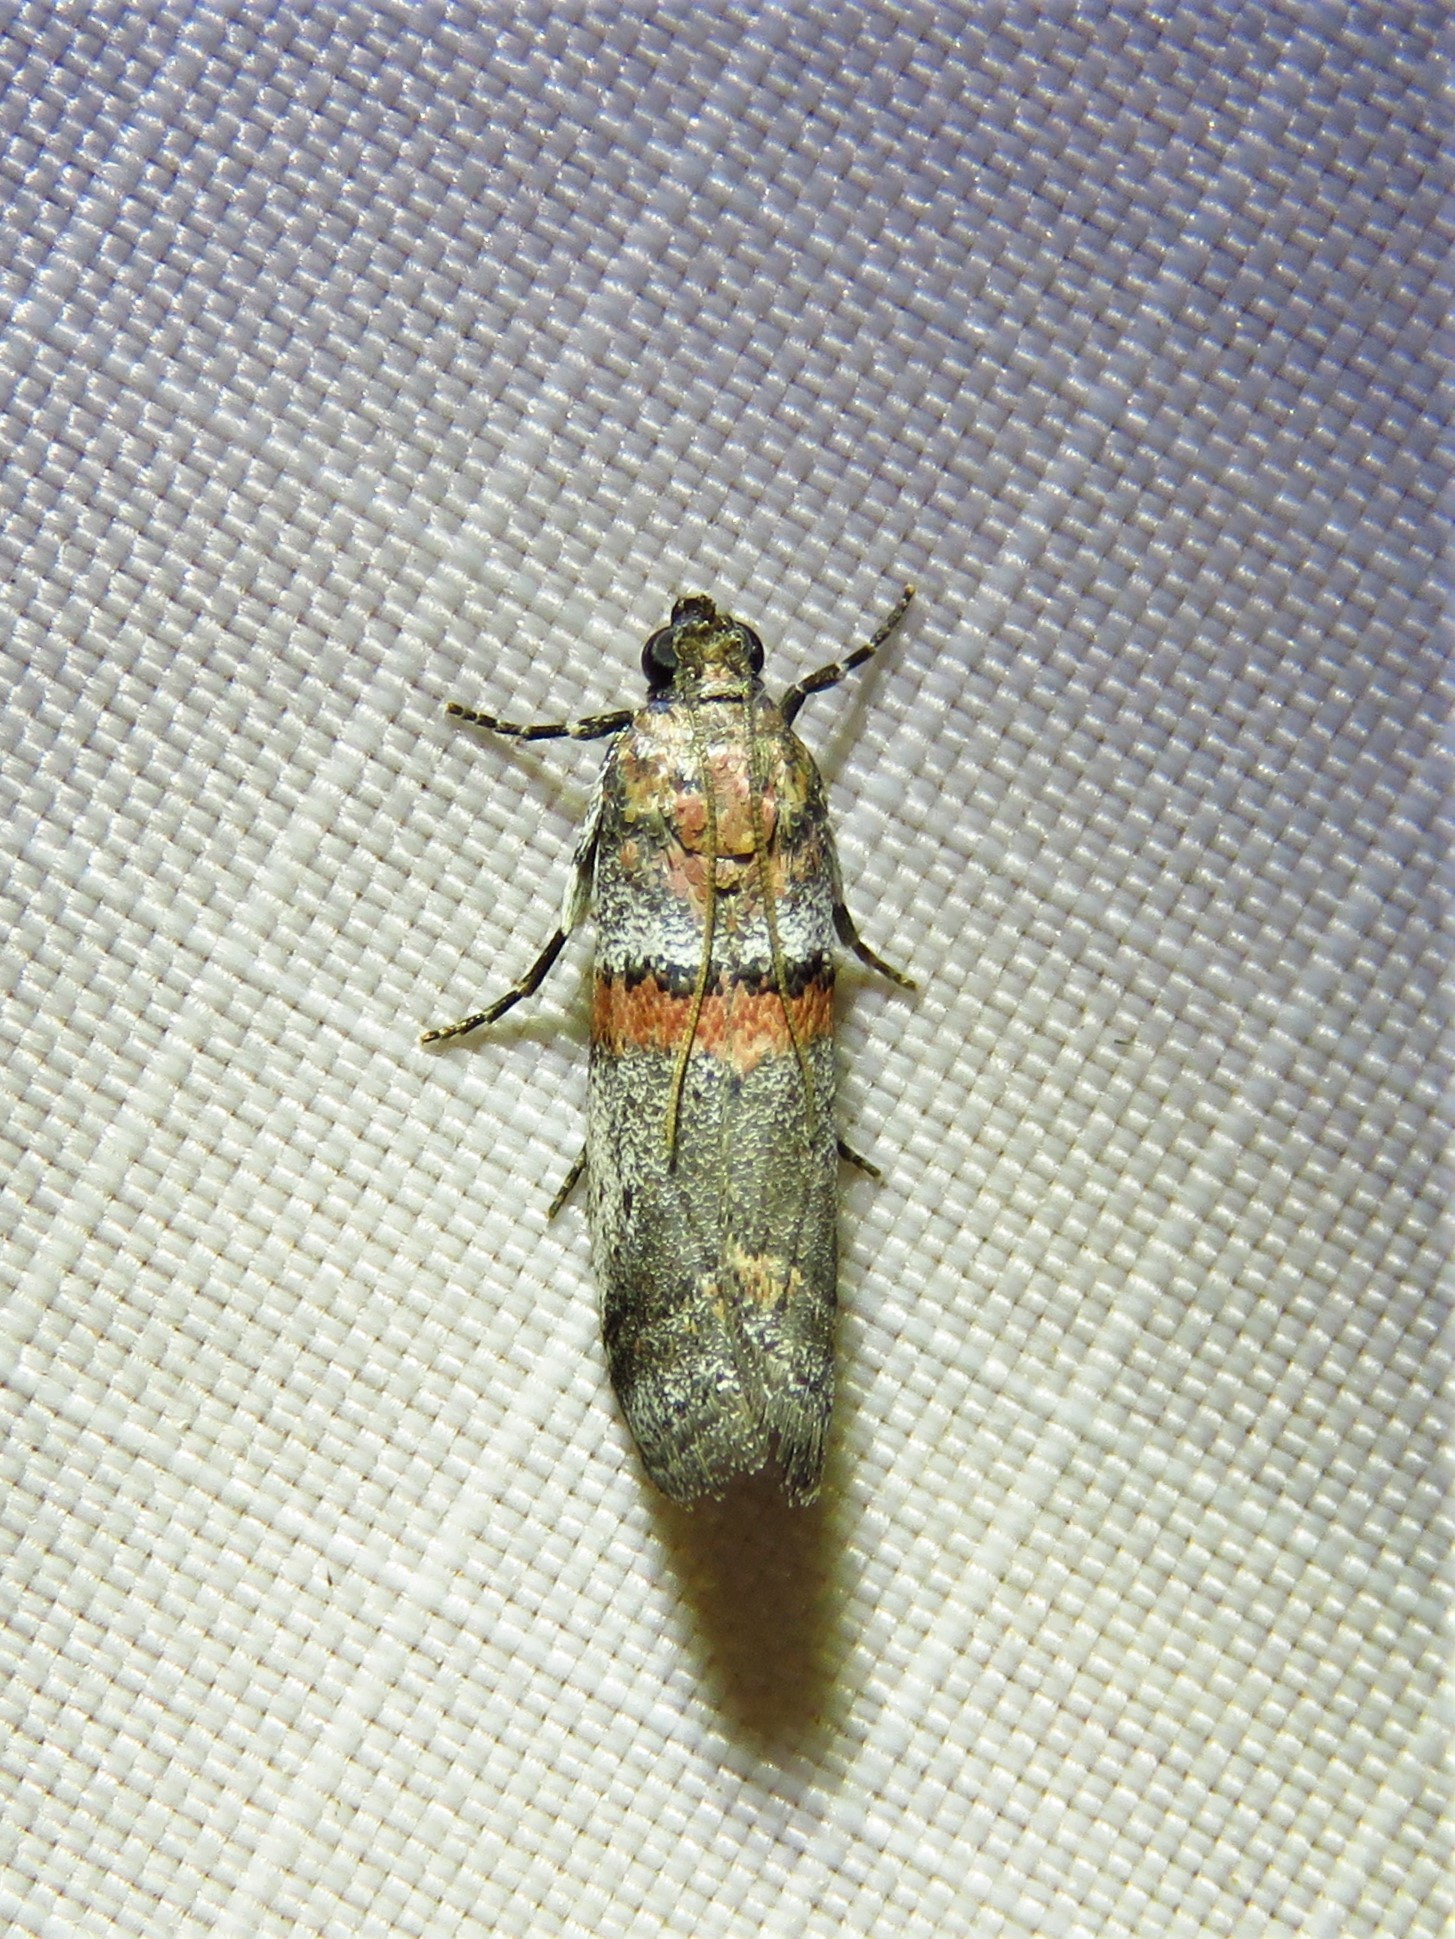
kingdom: Animalia
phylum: Arthropoda
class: Insecta
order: Lepidoptera
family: Pyralidae
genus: Acrobasis
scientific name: Acrobasis comptella
